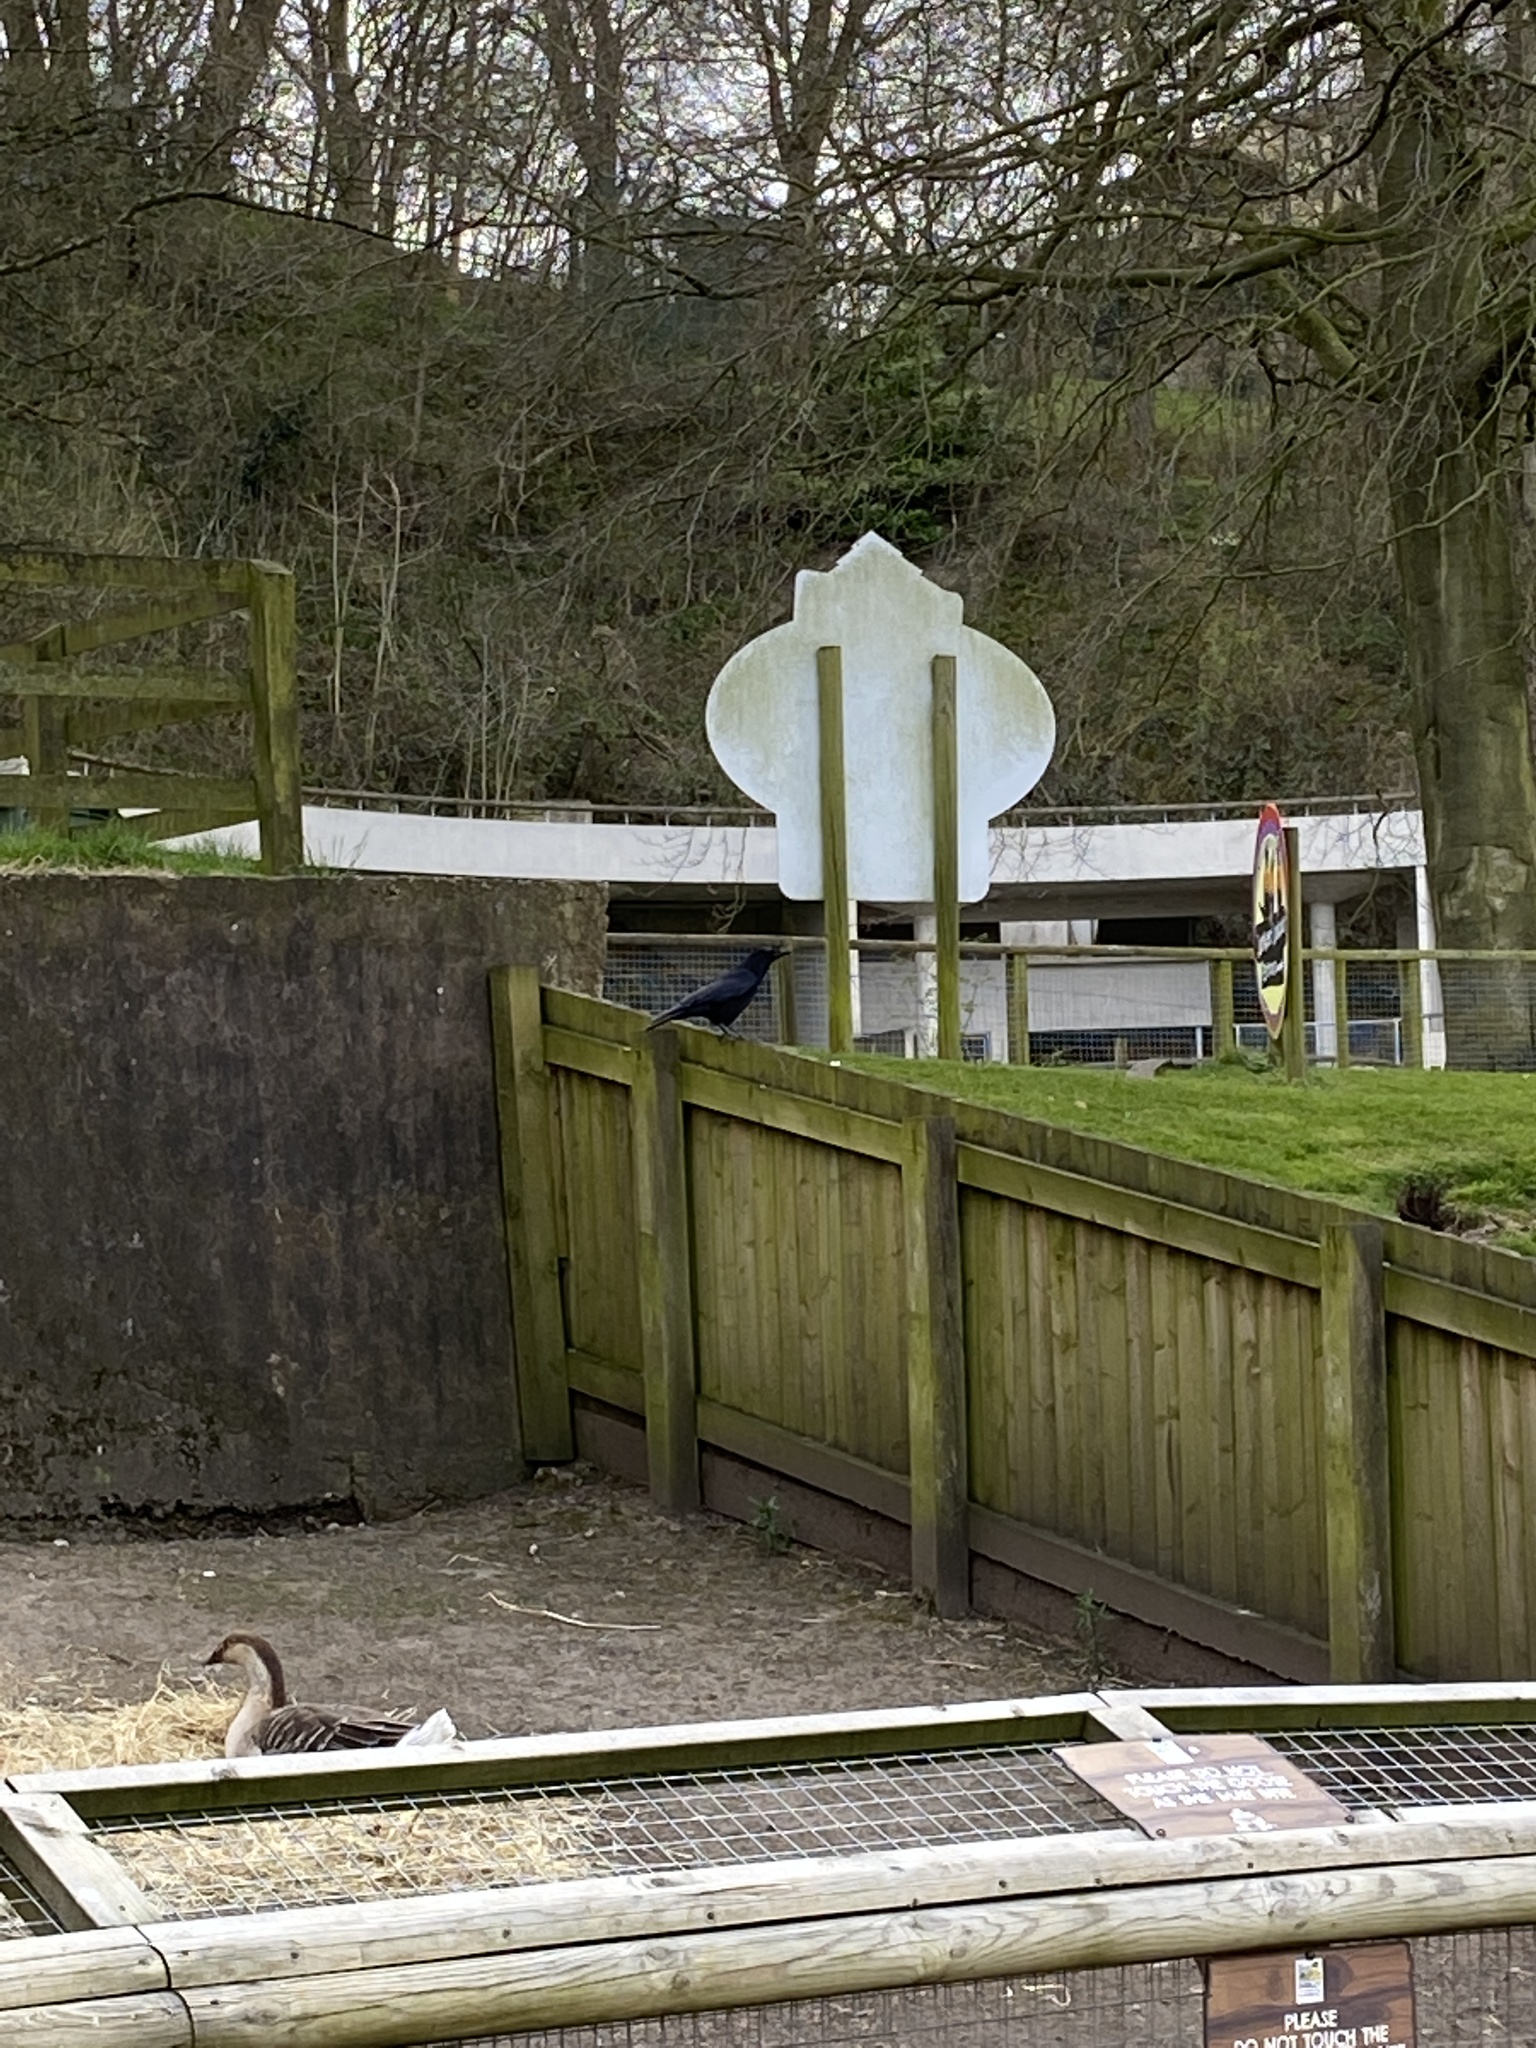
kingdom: Animalia
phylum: Chordata
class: Aves
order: Passeriformes
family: Corvidae
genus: Corvus
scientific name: Corvus corone
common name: Carrion crow
